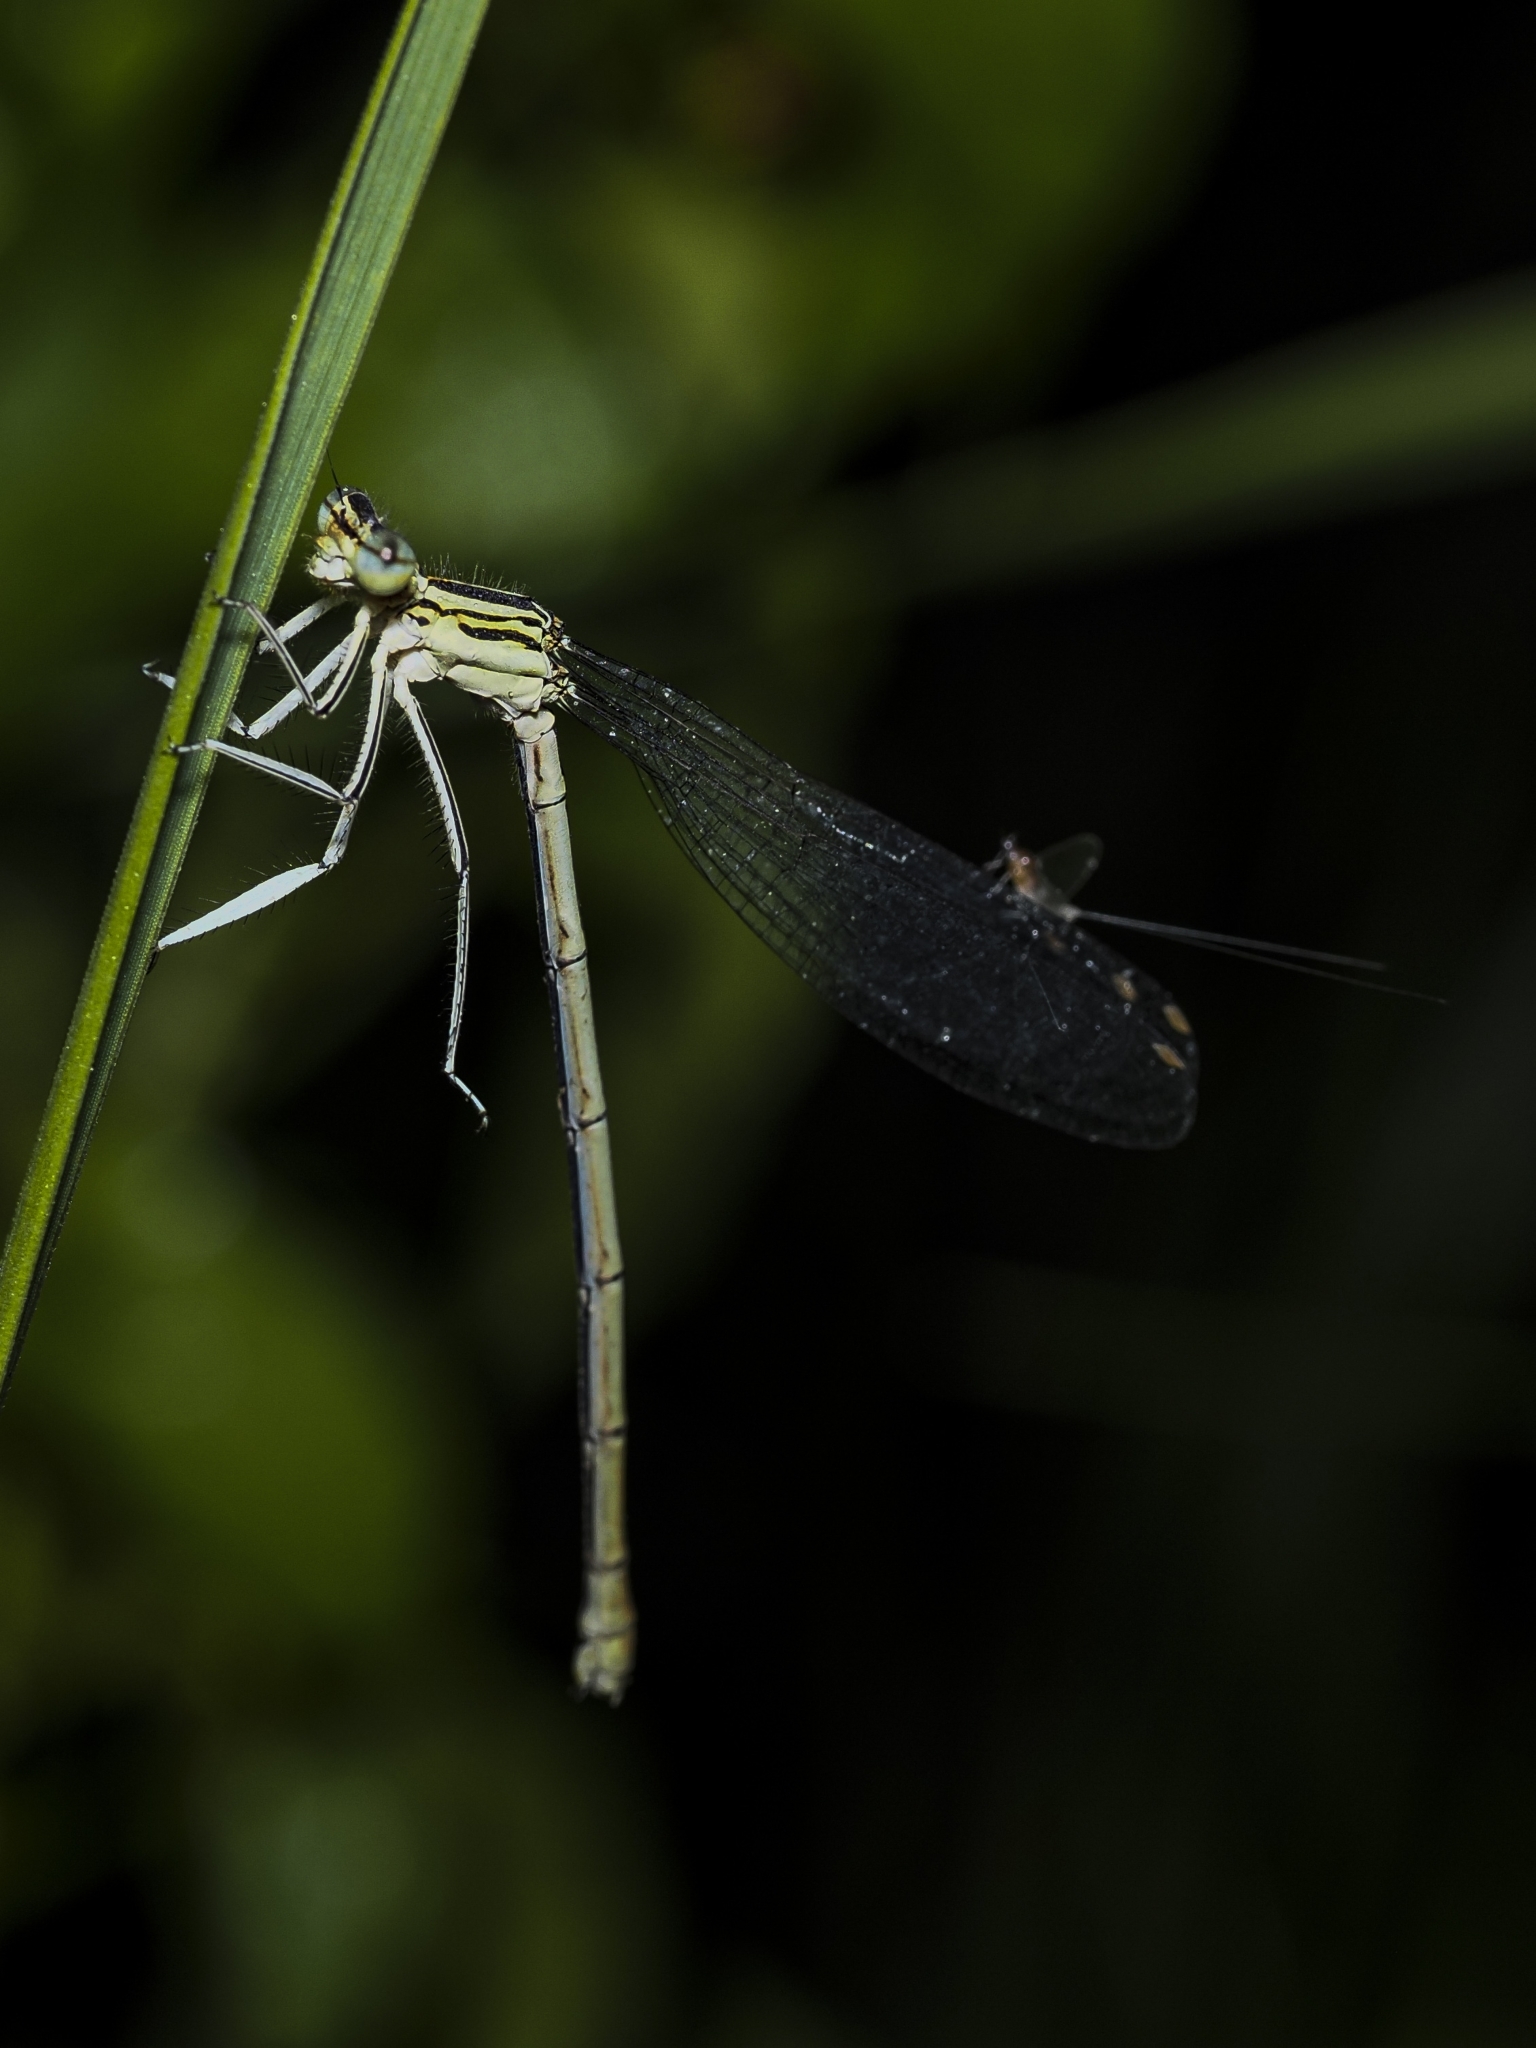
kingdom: Animalia
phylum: Arthropoda
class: Insecta
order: Odonata
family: Platycnemididae
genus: Platycnemis
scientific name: Platycnemis pennipes
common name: White-legged damselfly
